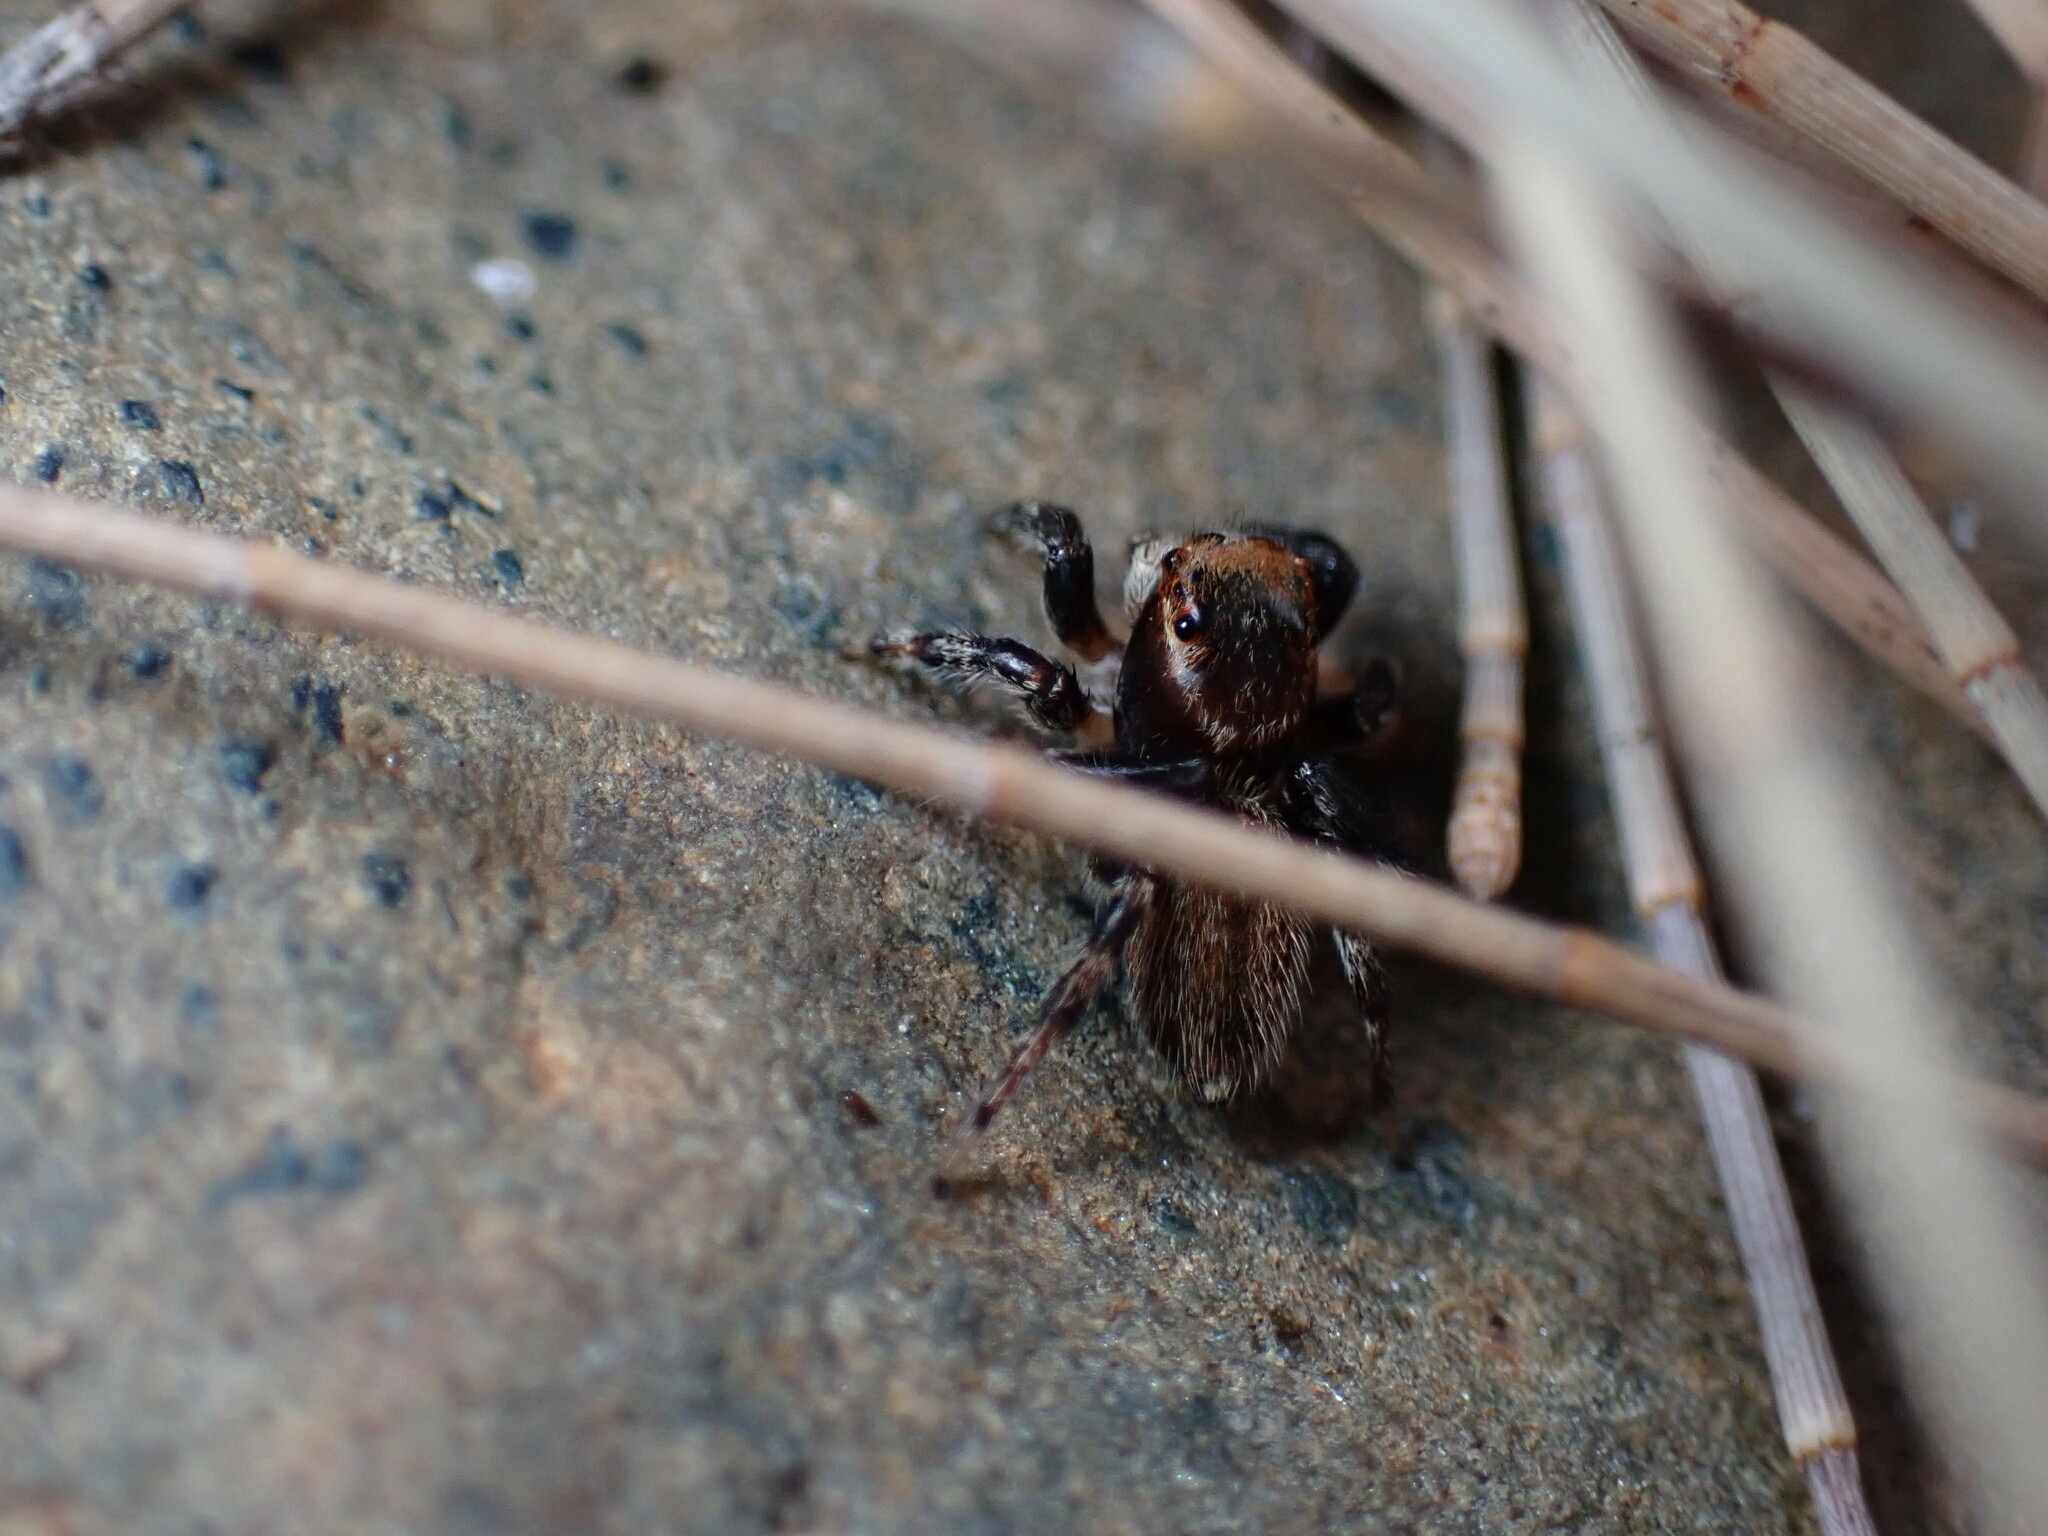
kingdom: Animalia
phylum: Arthropoda
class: Arachnida
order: Araneae
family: Salticidae
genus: Maratus
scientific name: Maratus griseus
